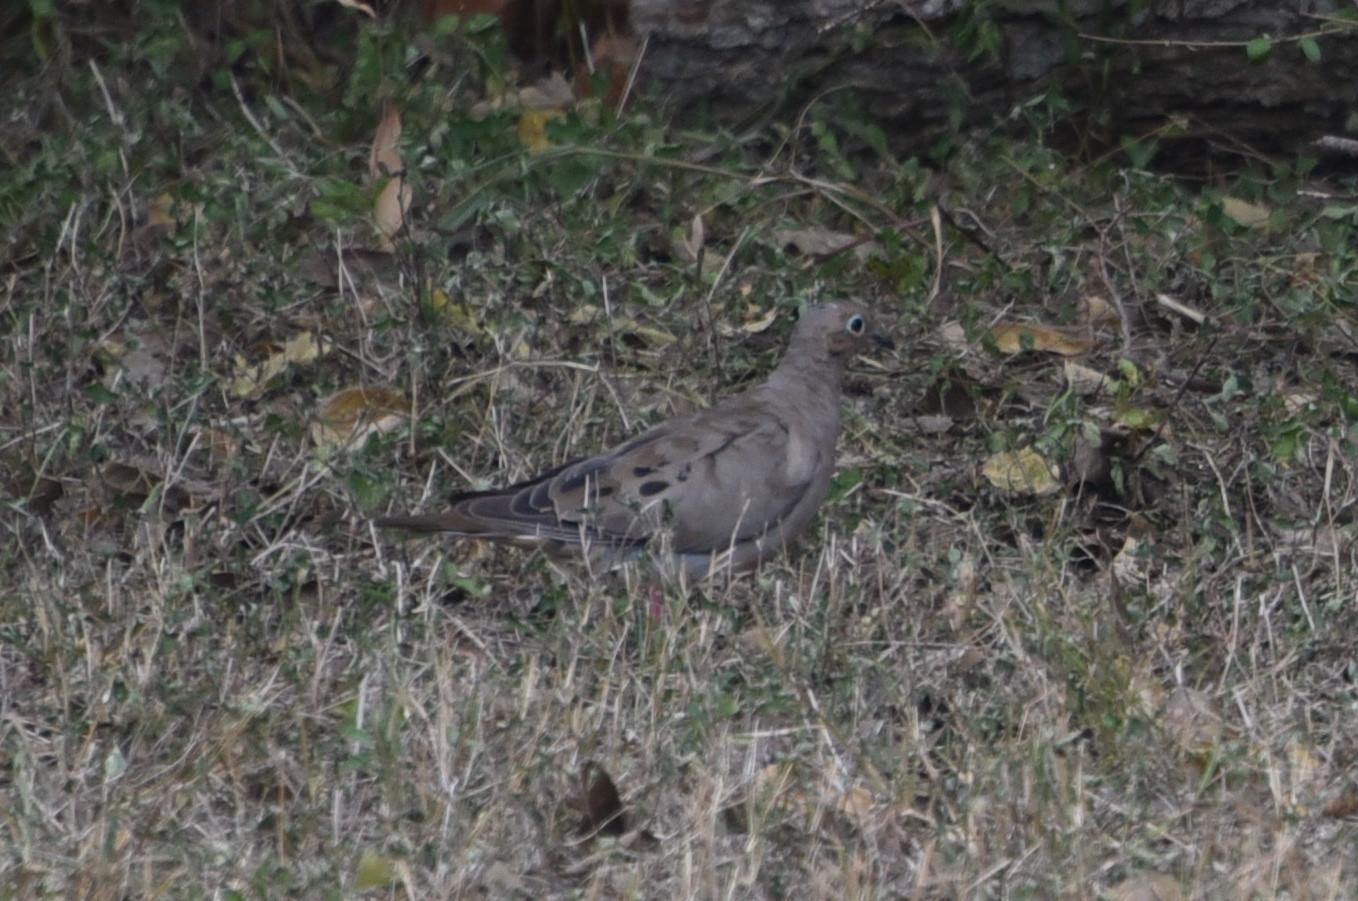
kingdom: Animalia
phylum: Chordata
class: Aves
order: Columbiformes
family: Columbidae
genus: Zenaida
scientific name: Zenaida macroura
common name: Mourning dove
